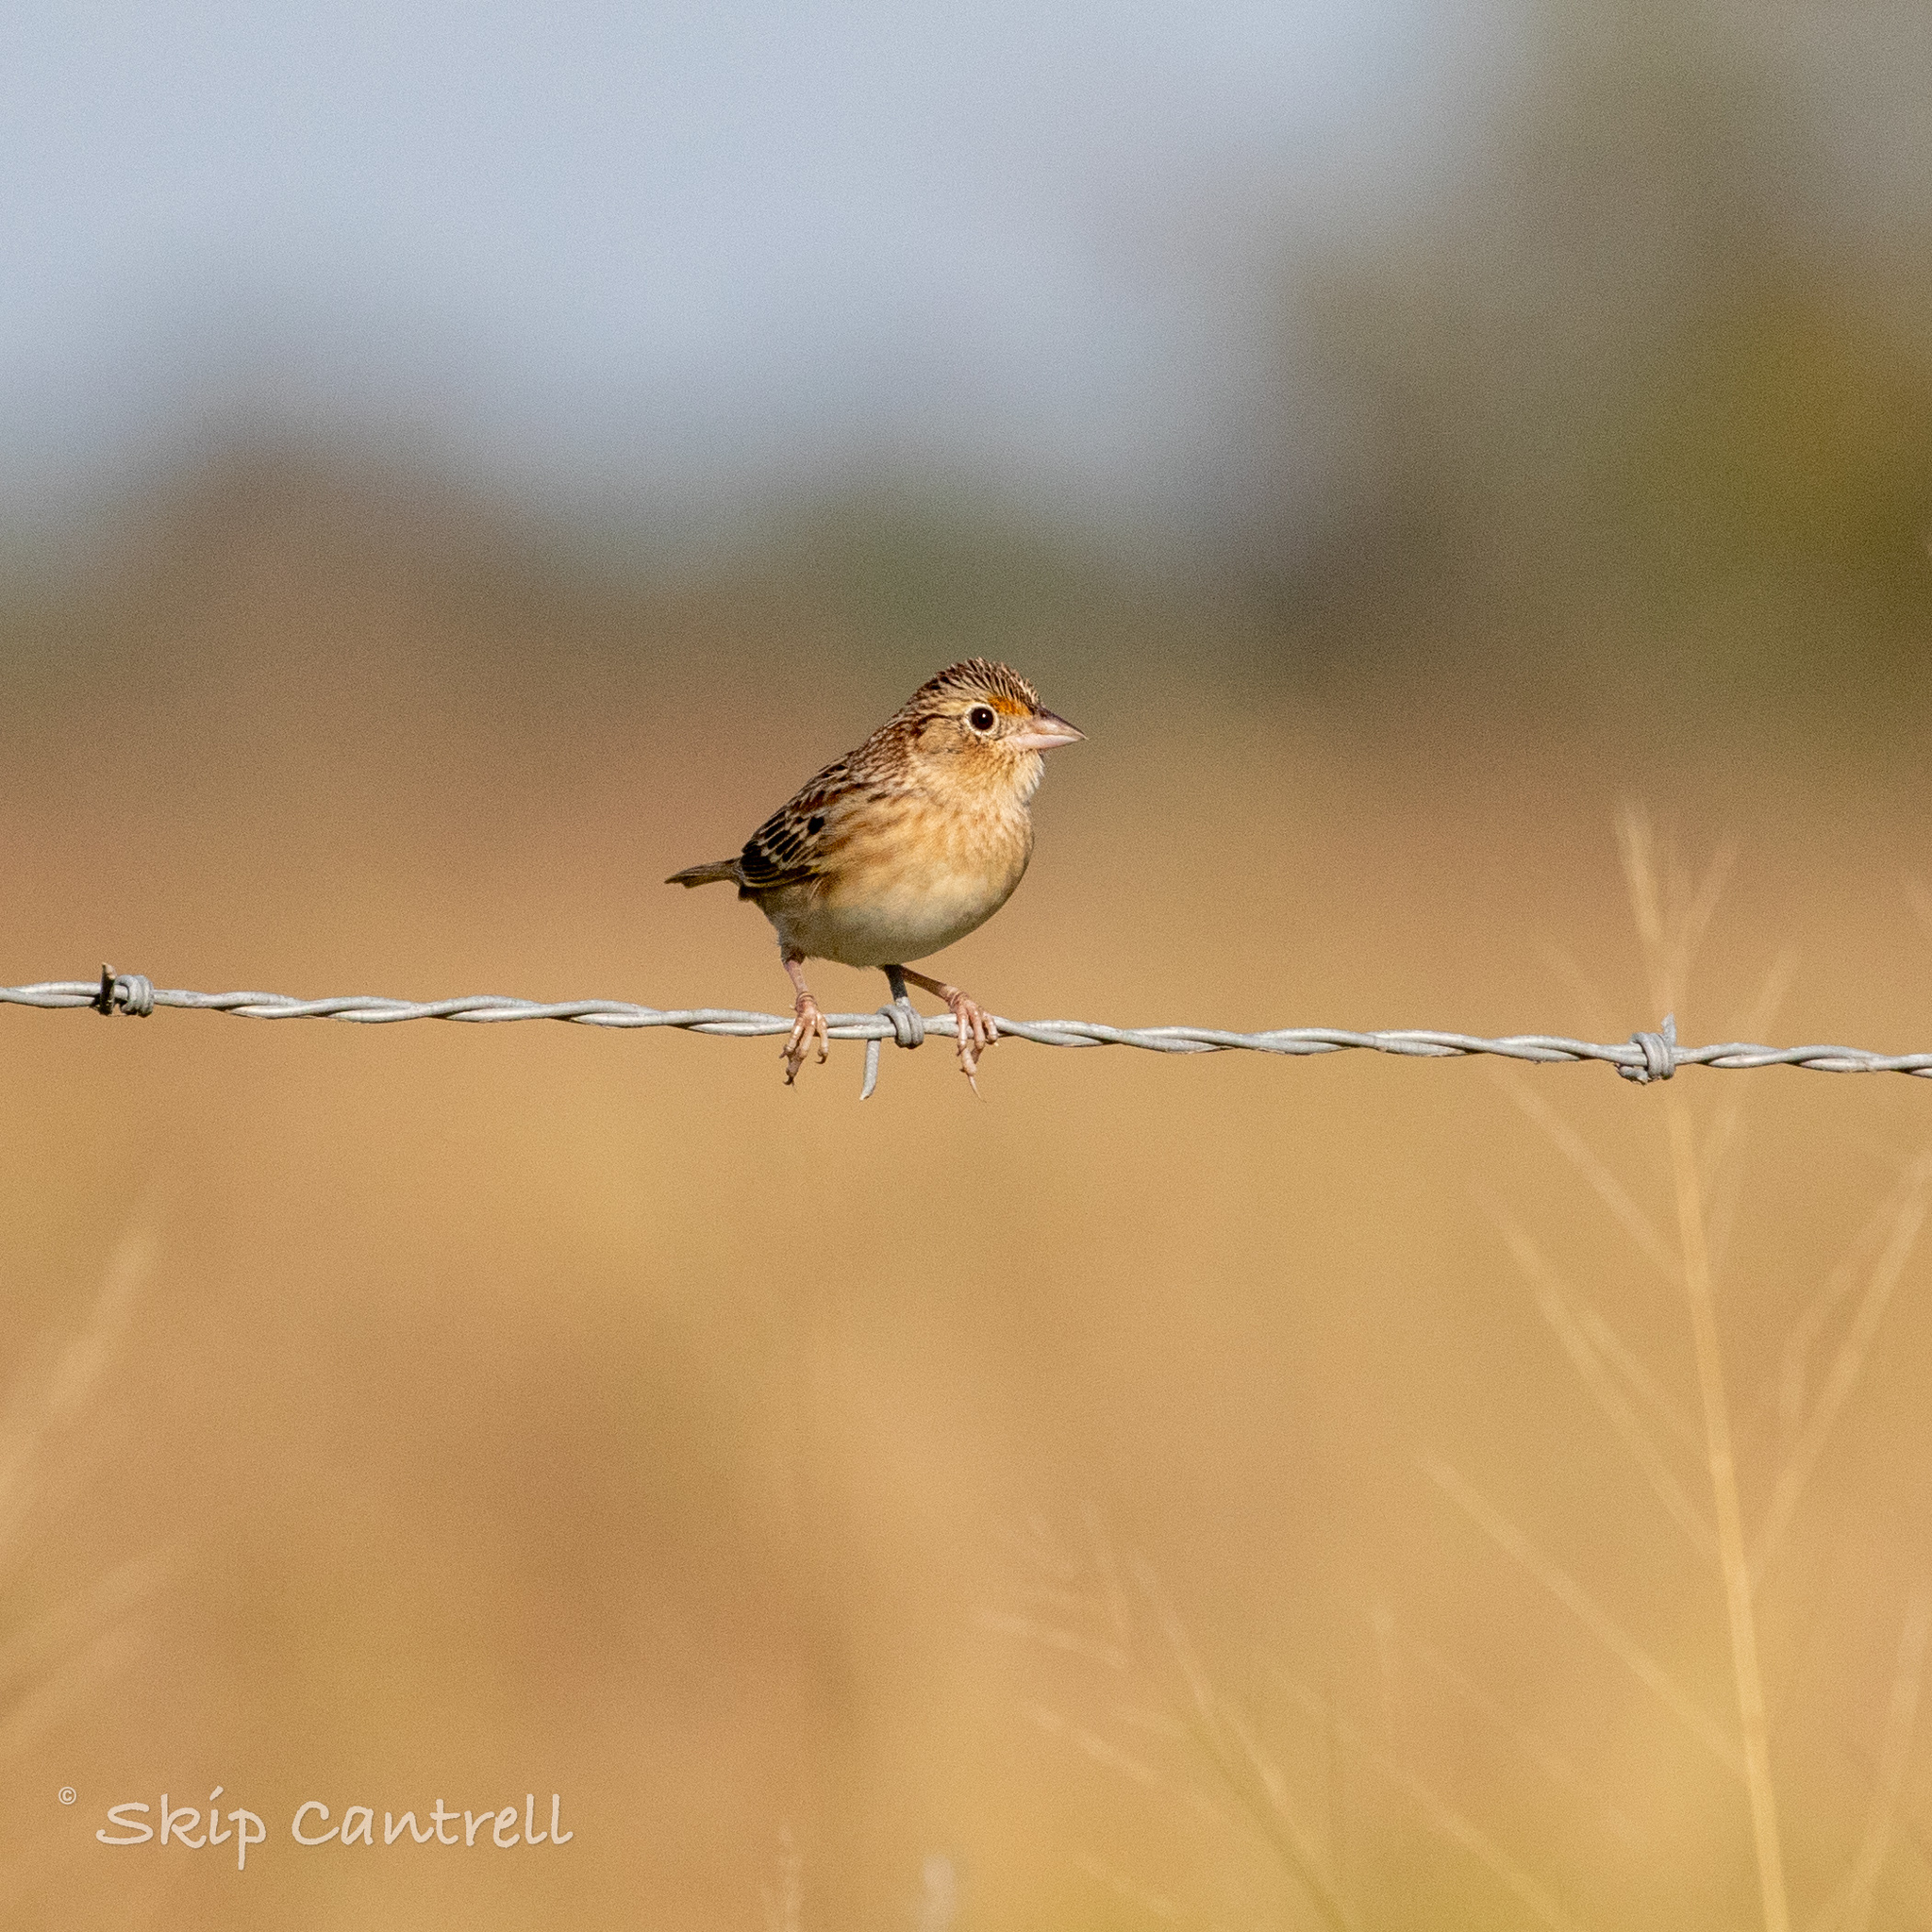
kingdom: Animalia
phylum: Chordata
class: Aves
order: Passeriformes
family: Passerellidae
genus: Ammodramus
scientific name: Ammodramus savannarum
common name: Grasshopper sparrow
